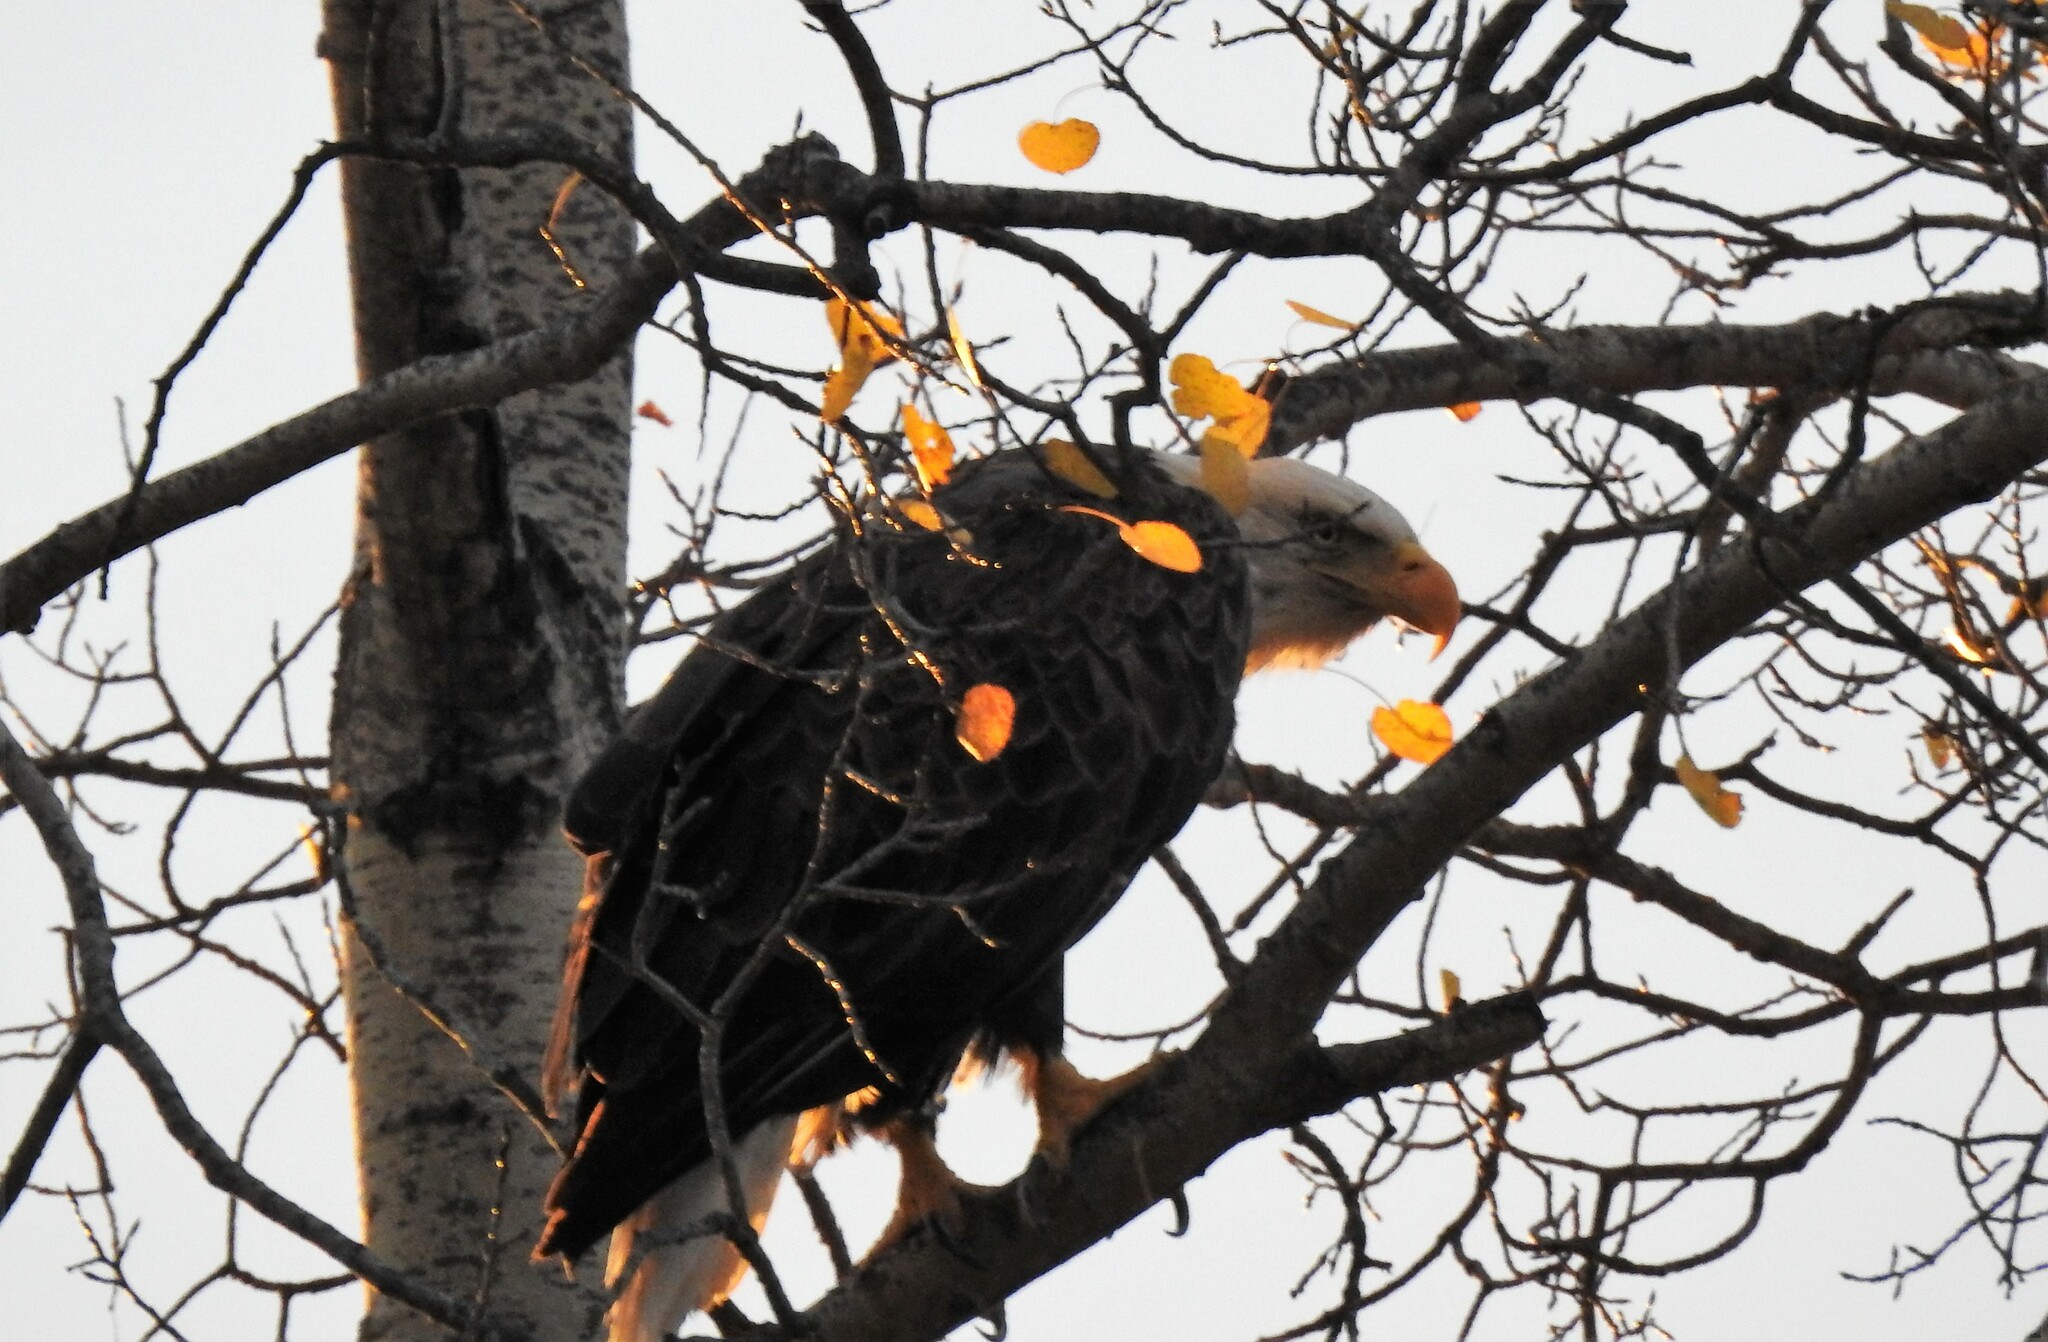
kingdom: Animalia
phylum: Chordata
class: Aves
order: Accipitriformes
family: Accipitridae
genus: Haliaeetus
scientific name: Haliaeetus leucocephalus
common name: Bald eagle
